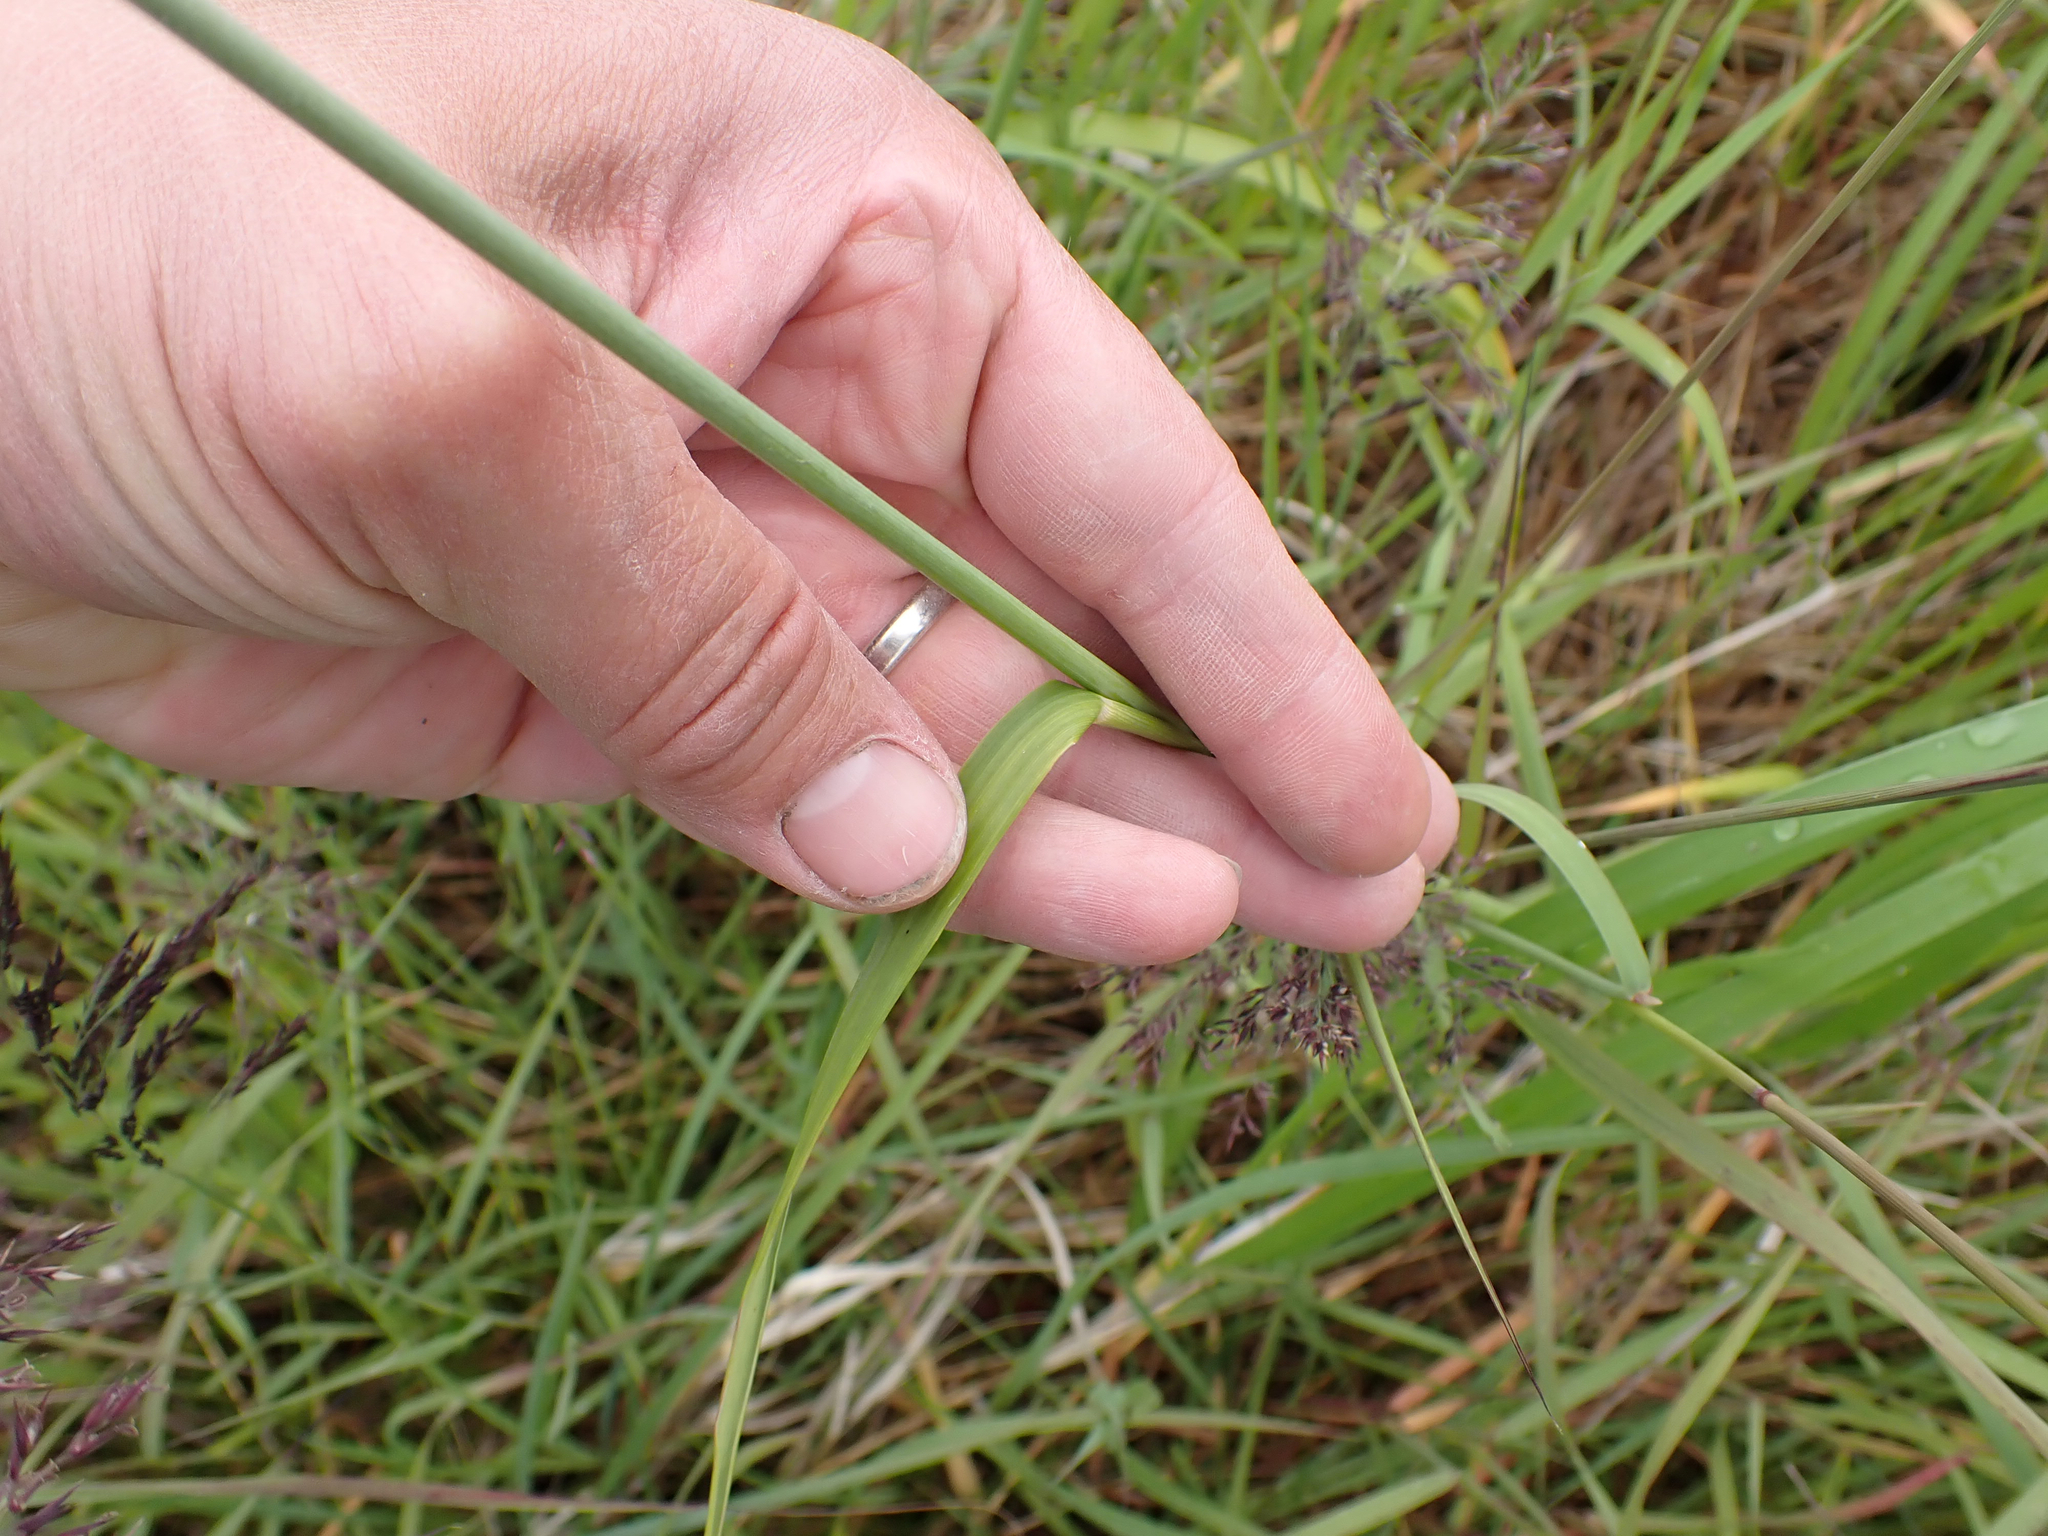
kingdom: Plantae
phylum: Tracheophyta
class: Liliopsida
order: Poales
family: Poaceae
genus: Leymus
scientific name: Leymus mollis
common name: American dune grass
